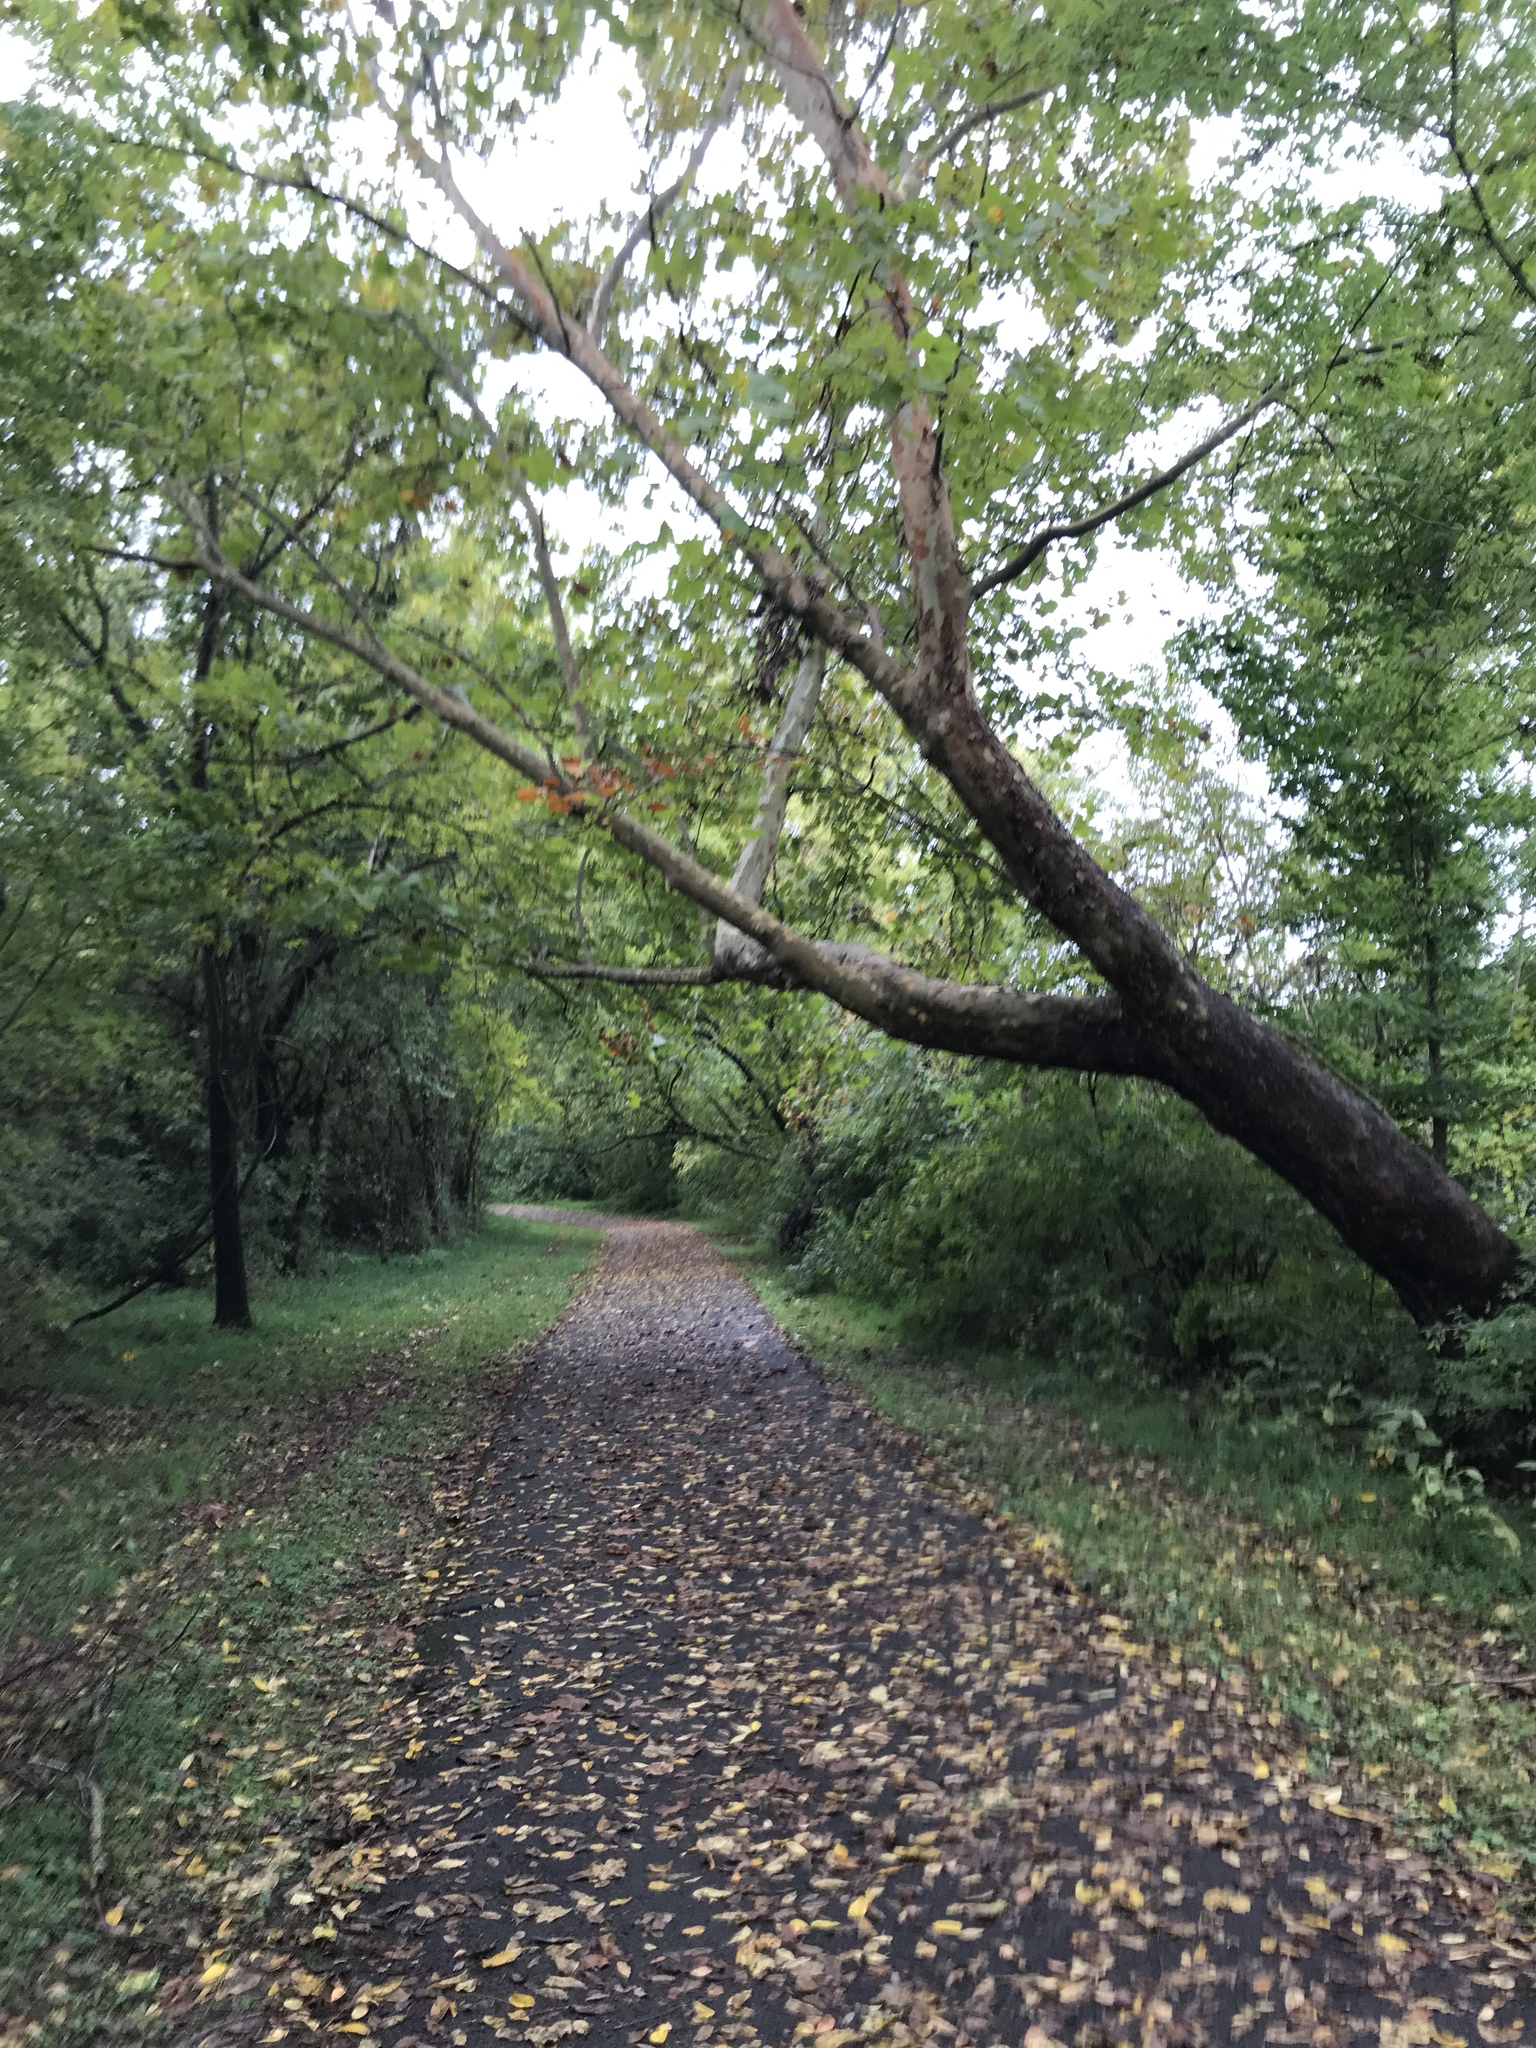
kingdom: Plantae
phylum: Tracheophyta
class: Magnoliopsida
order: Proteales
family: Platanaceae
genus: Platanus
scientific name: Platanus occidentalis
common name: American sycamore
